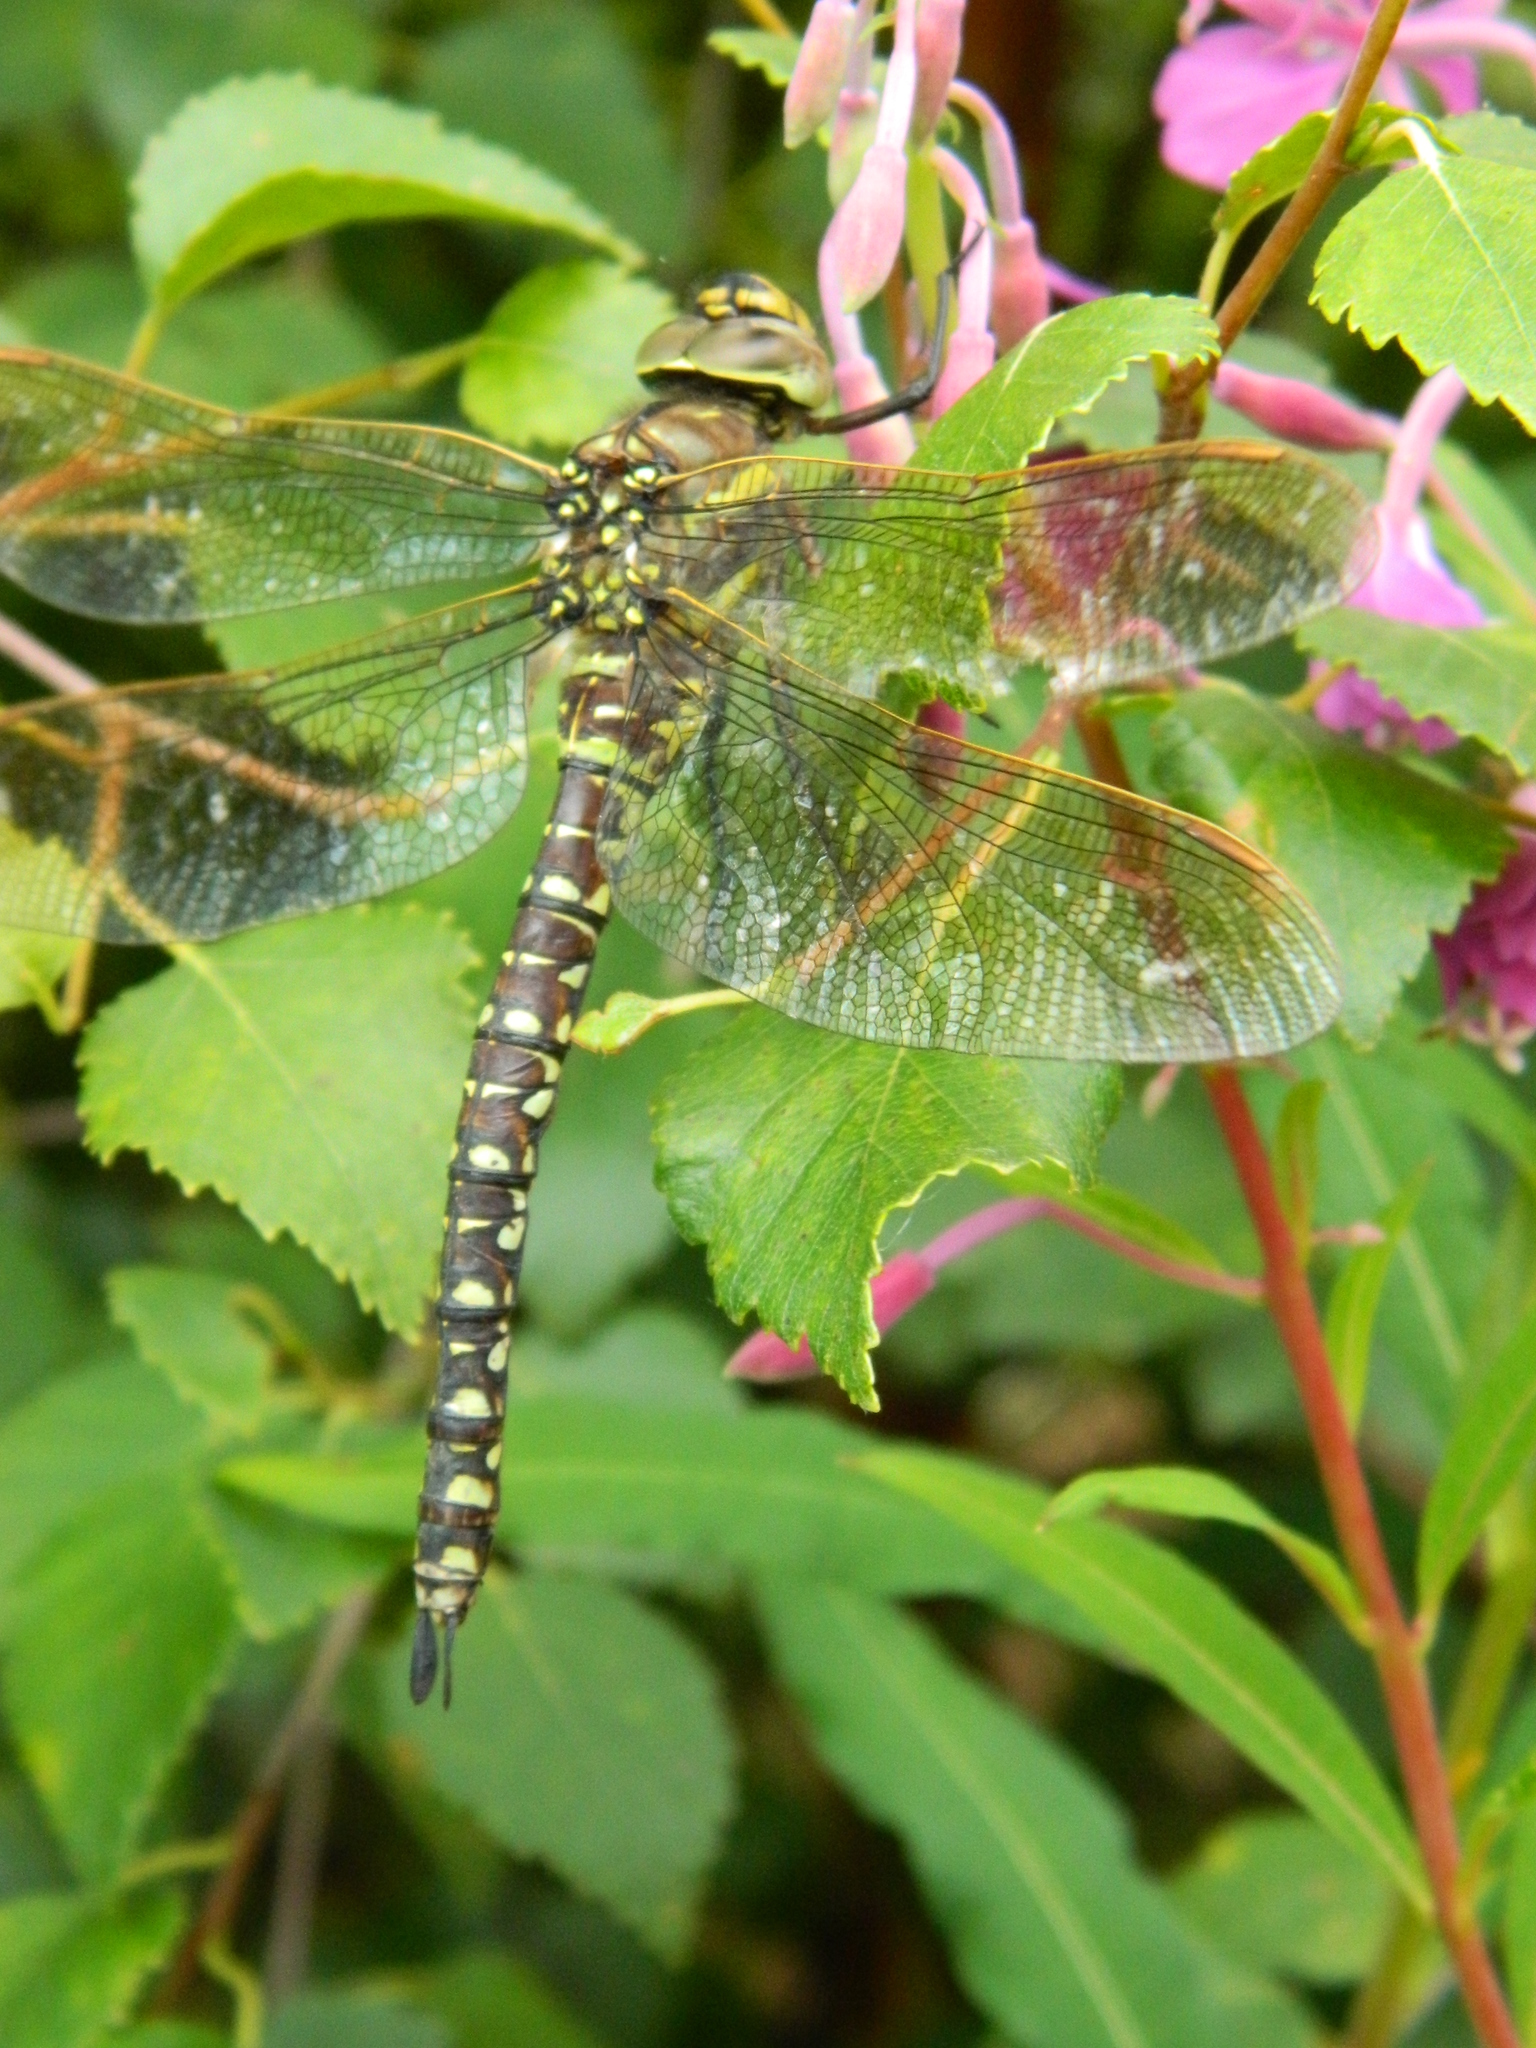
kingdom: Animalia
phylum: Arthropoda
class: Insecta
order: Odonata
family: Aeshnidae
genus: Aeshna
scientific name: Aeshna juncea
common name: Moorland hawker
